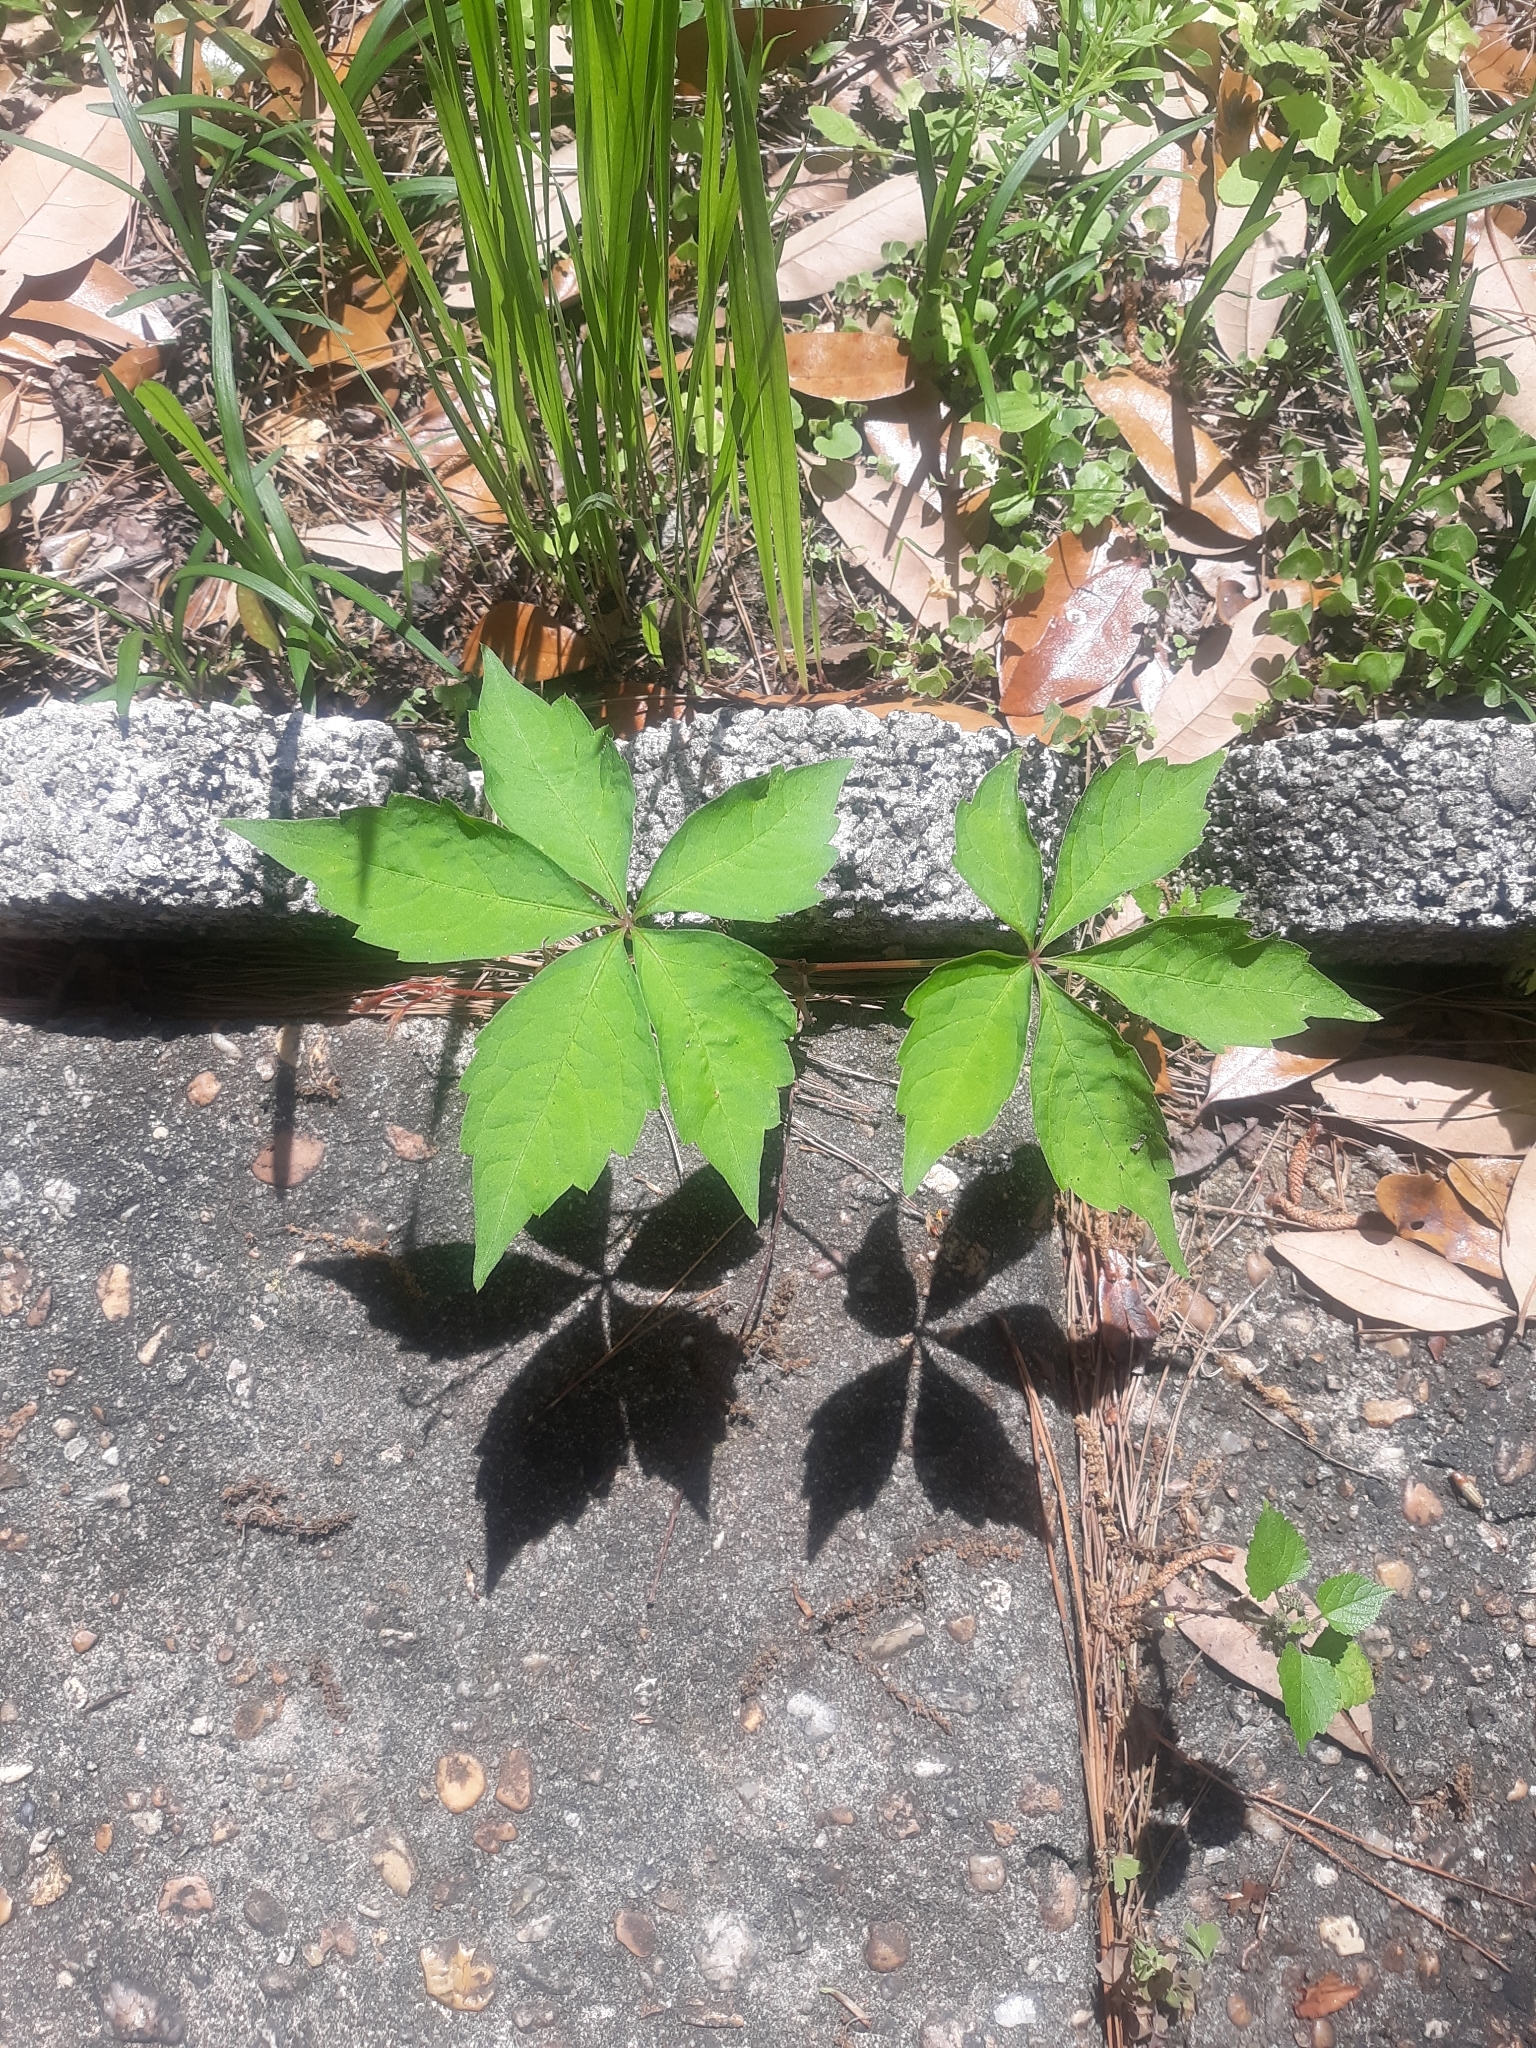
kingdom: Plantae
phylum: Tracheophyta
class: Magnoliopsida
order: Vitales
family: Vitaceae
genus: Parthenocissus
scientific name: Parthenocissus quinquefolia
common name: Virginia-creeper
